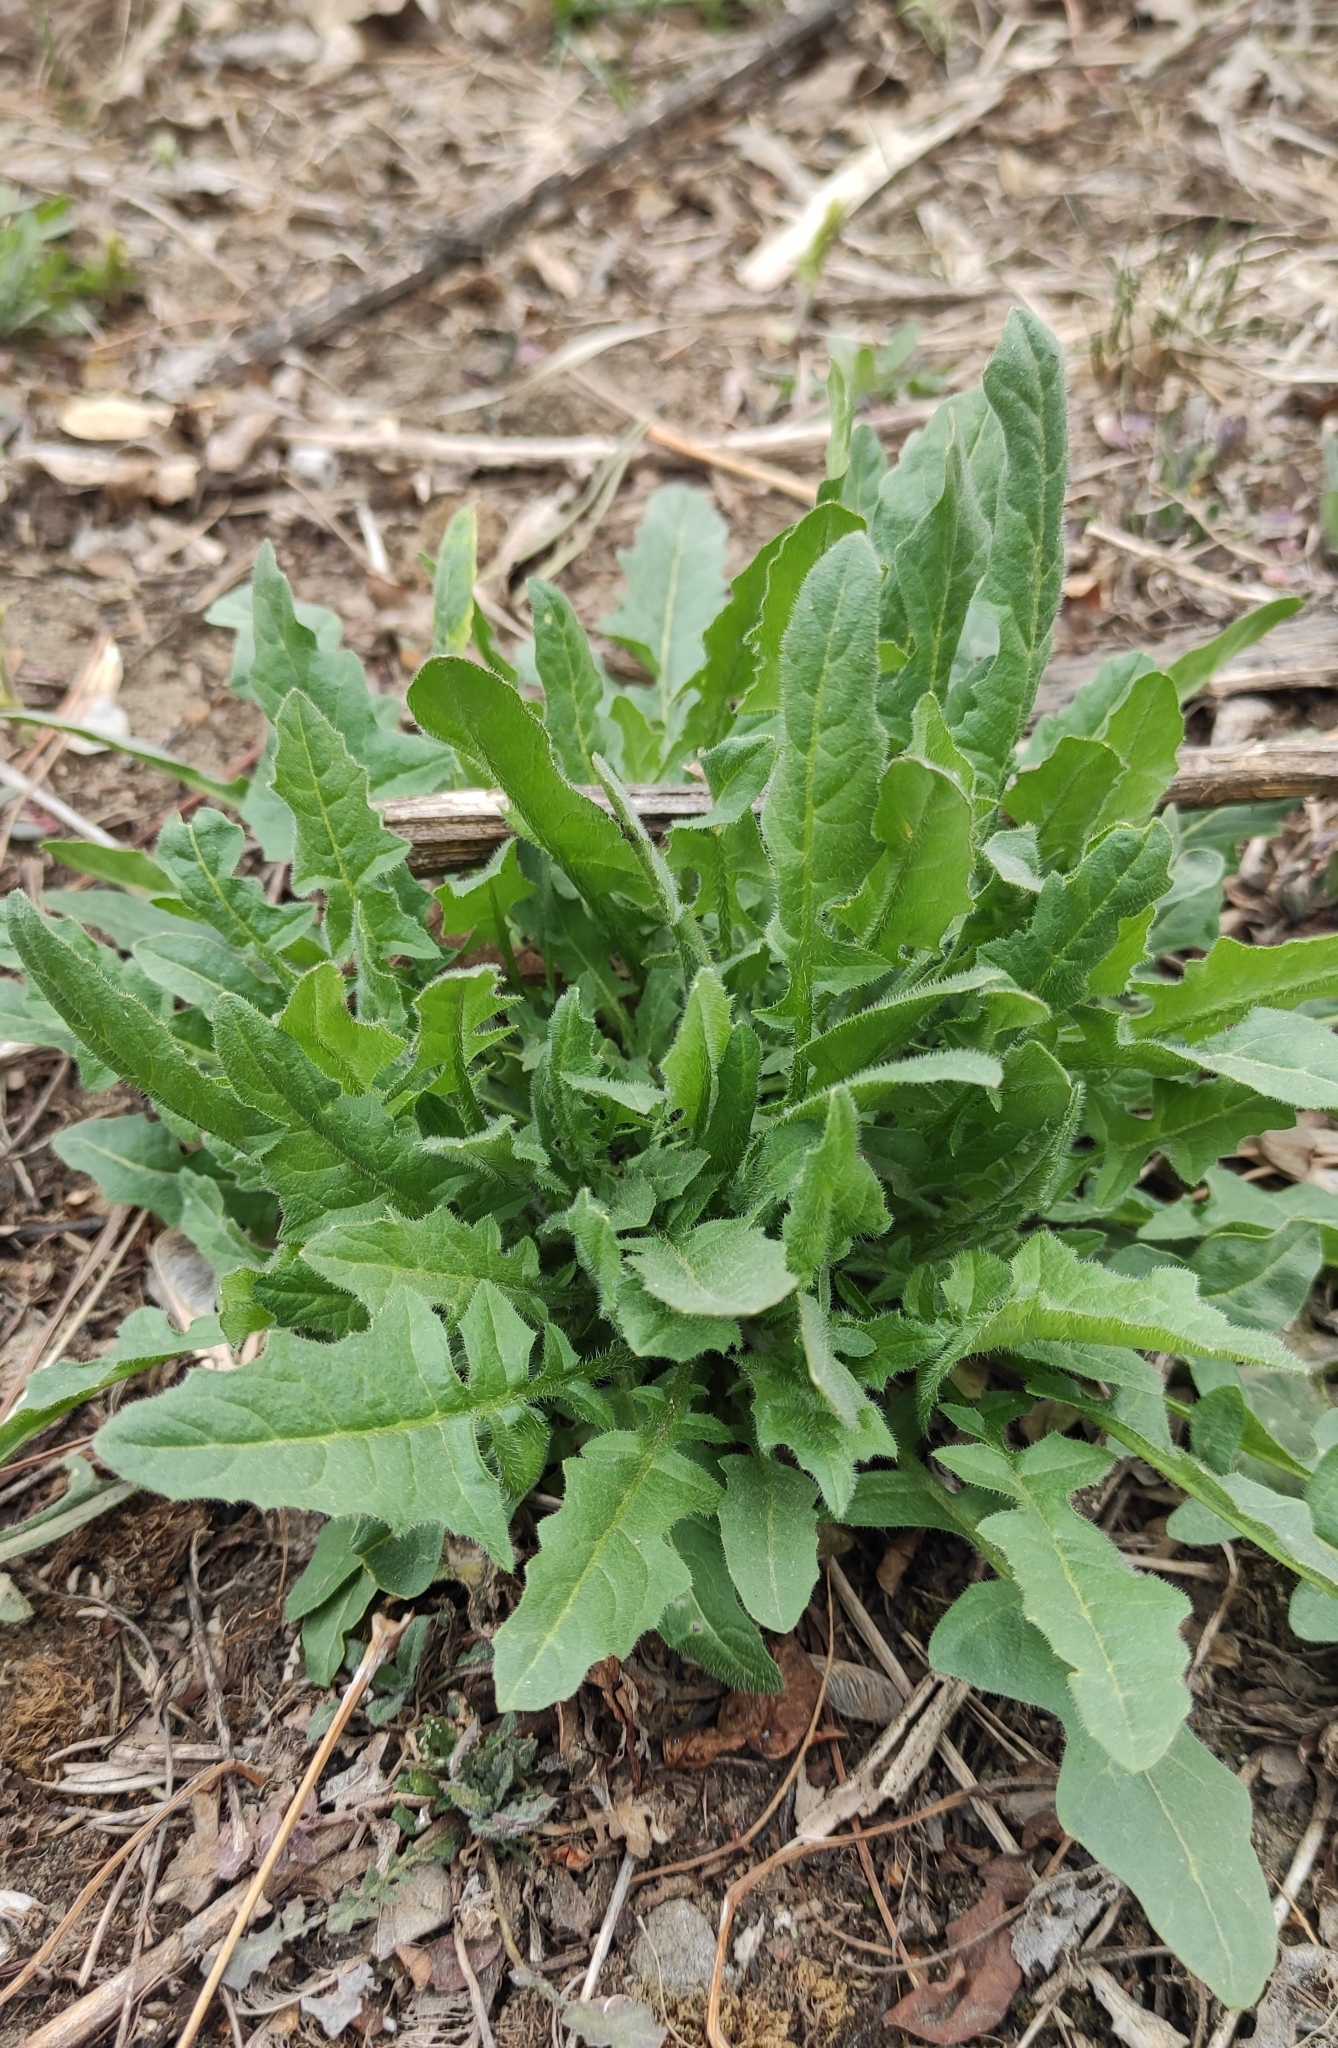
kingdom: Plantae
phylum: Tracheophyta
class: Magnoliopsida
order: Brassicales
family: Brassicaceae
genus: Sisymbrium
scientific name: Sisymbrium loeselii
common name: False london-rocket
